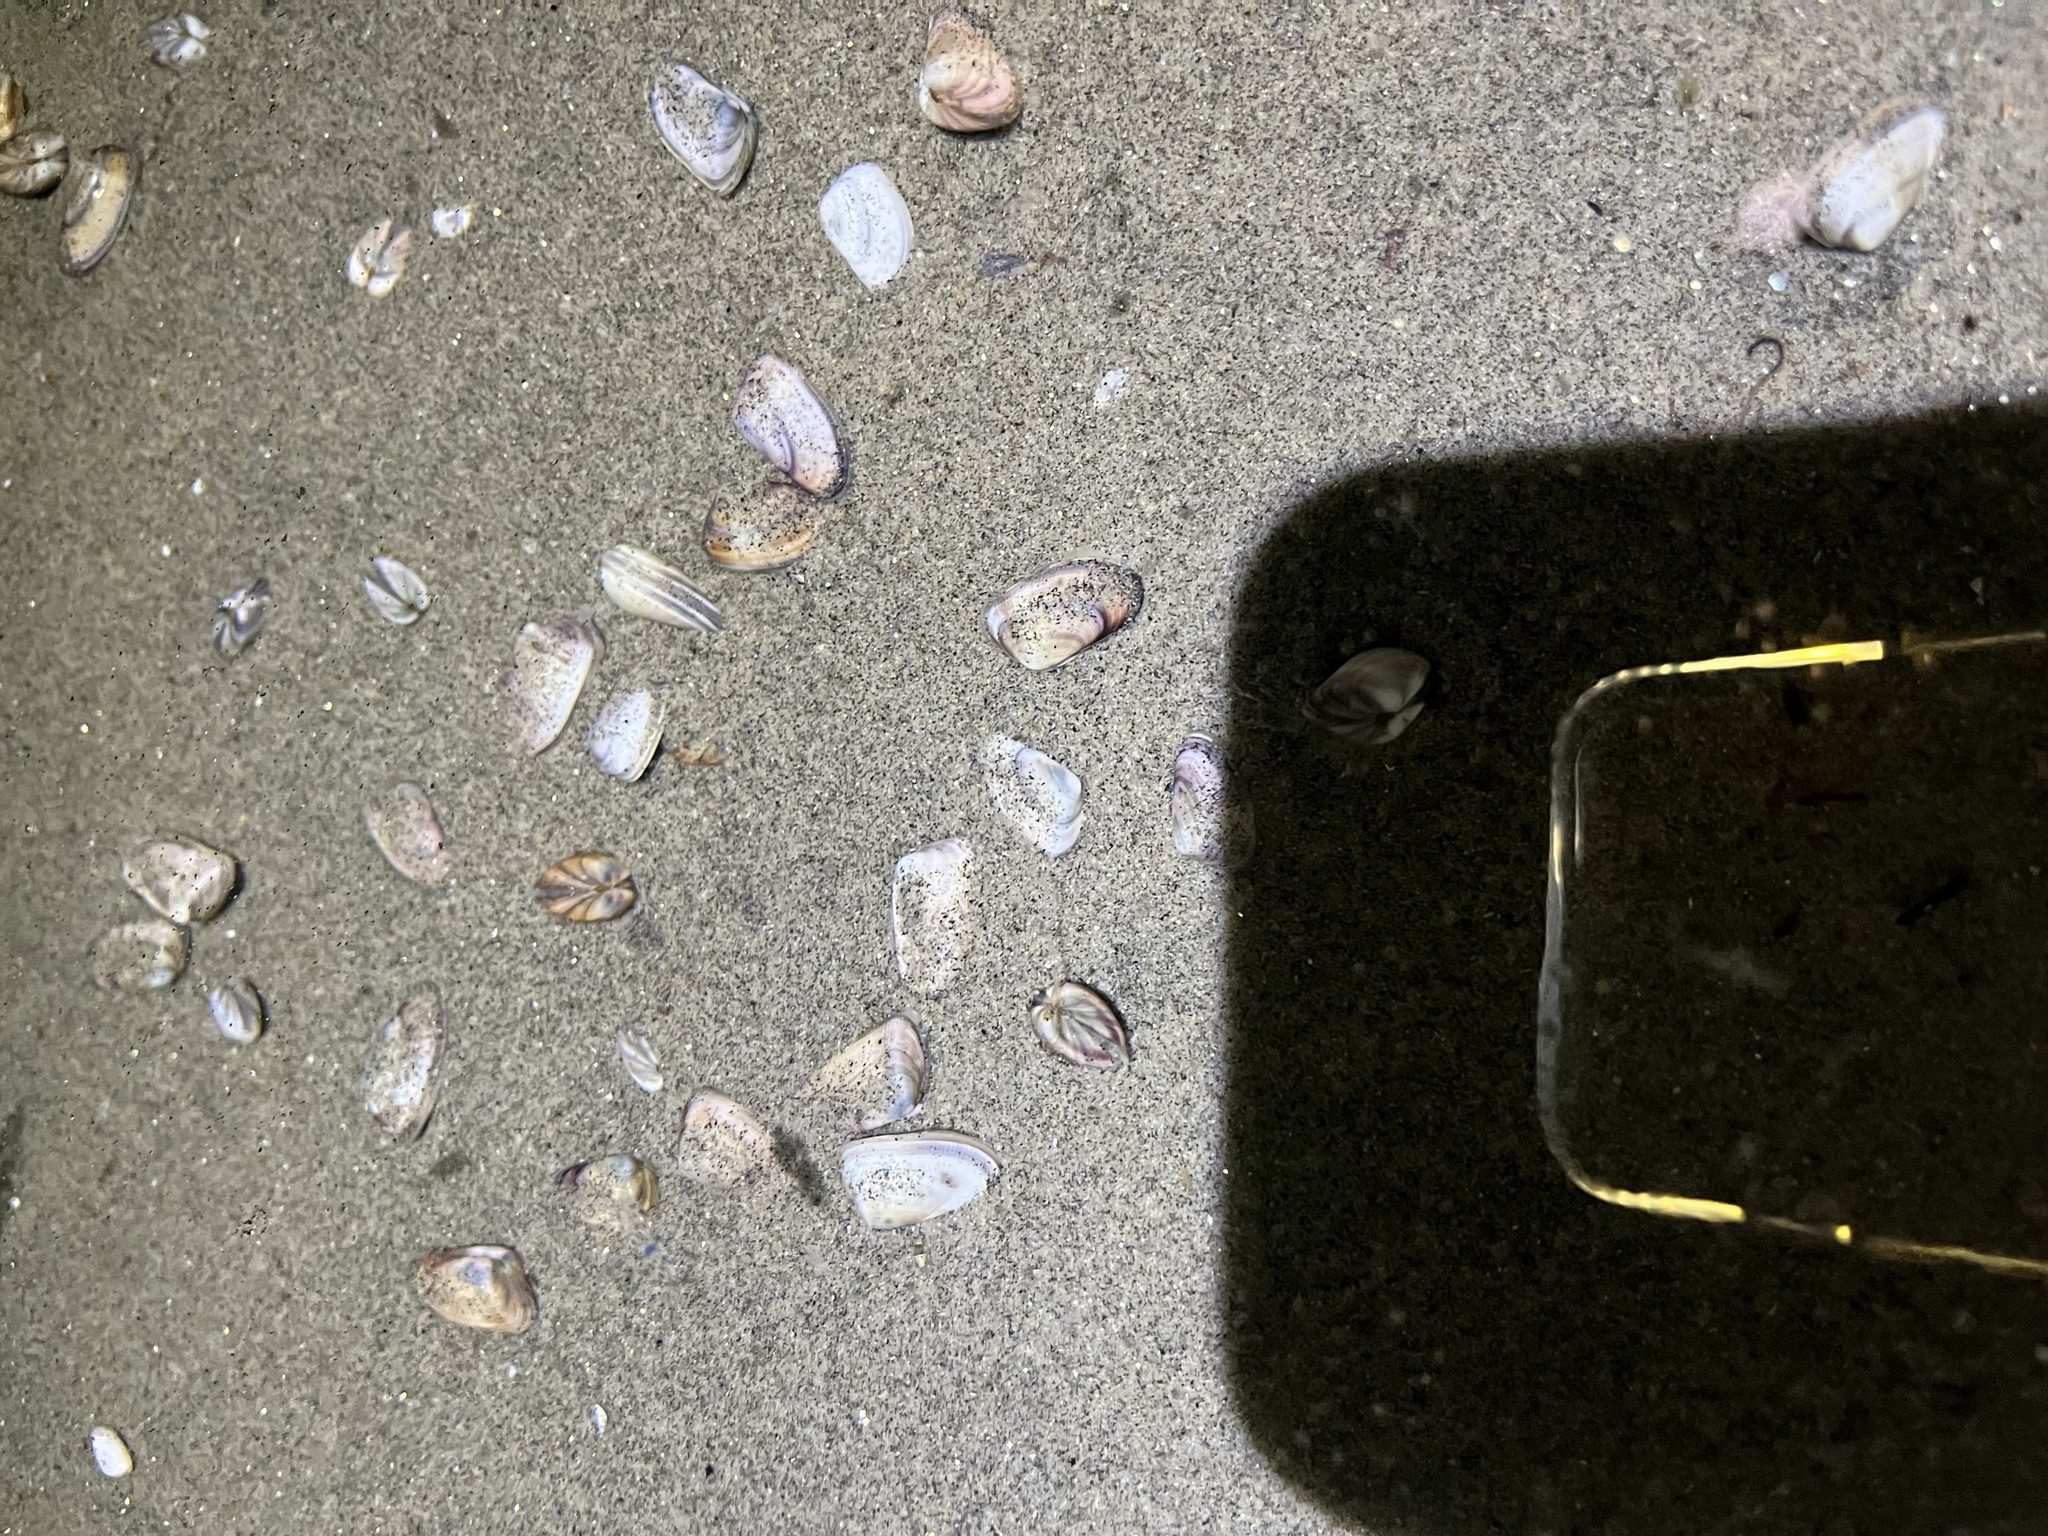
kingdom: Animalia
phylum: Mollusca
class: Bivalvia
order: Cardiida
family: Donacidae
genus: Donax
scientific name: Donax gouldii
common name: Gould beanclam
